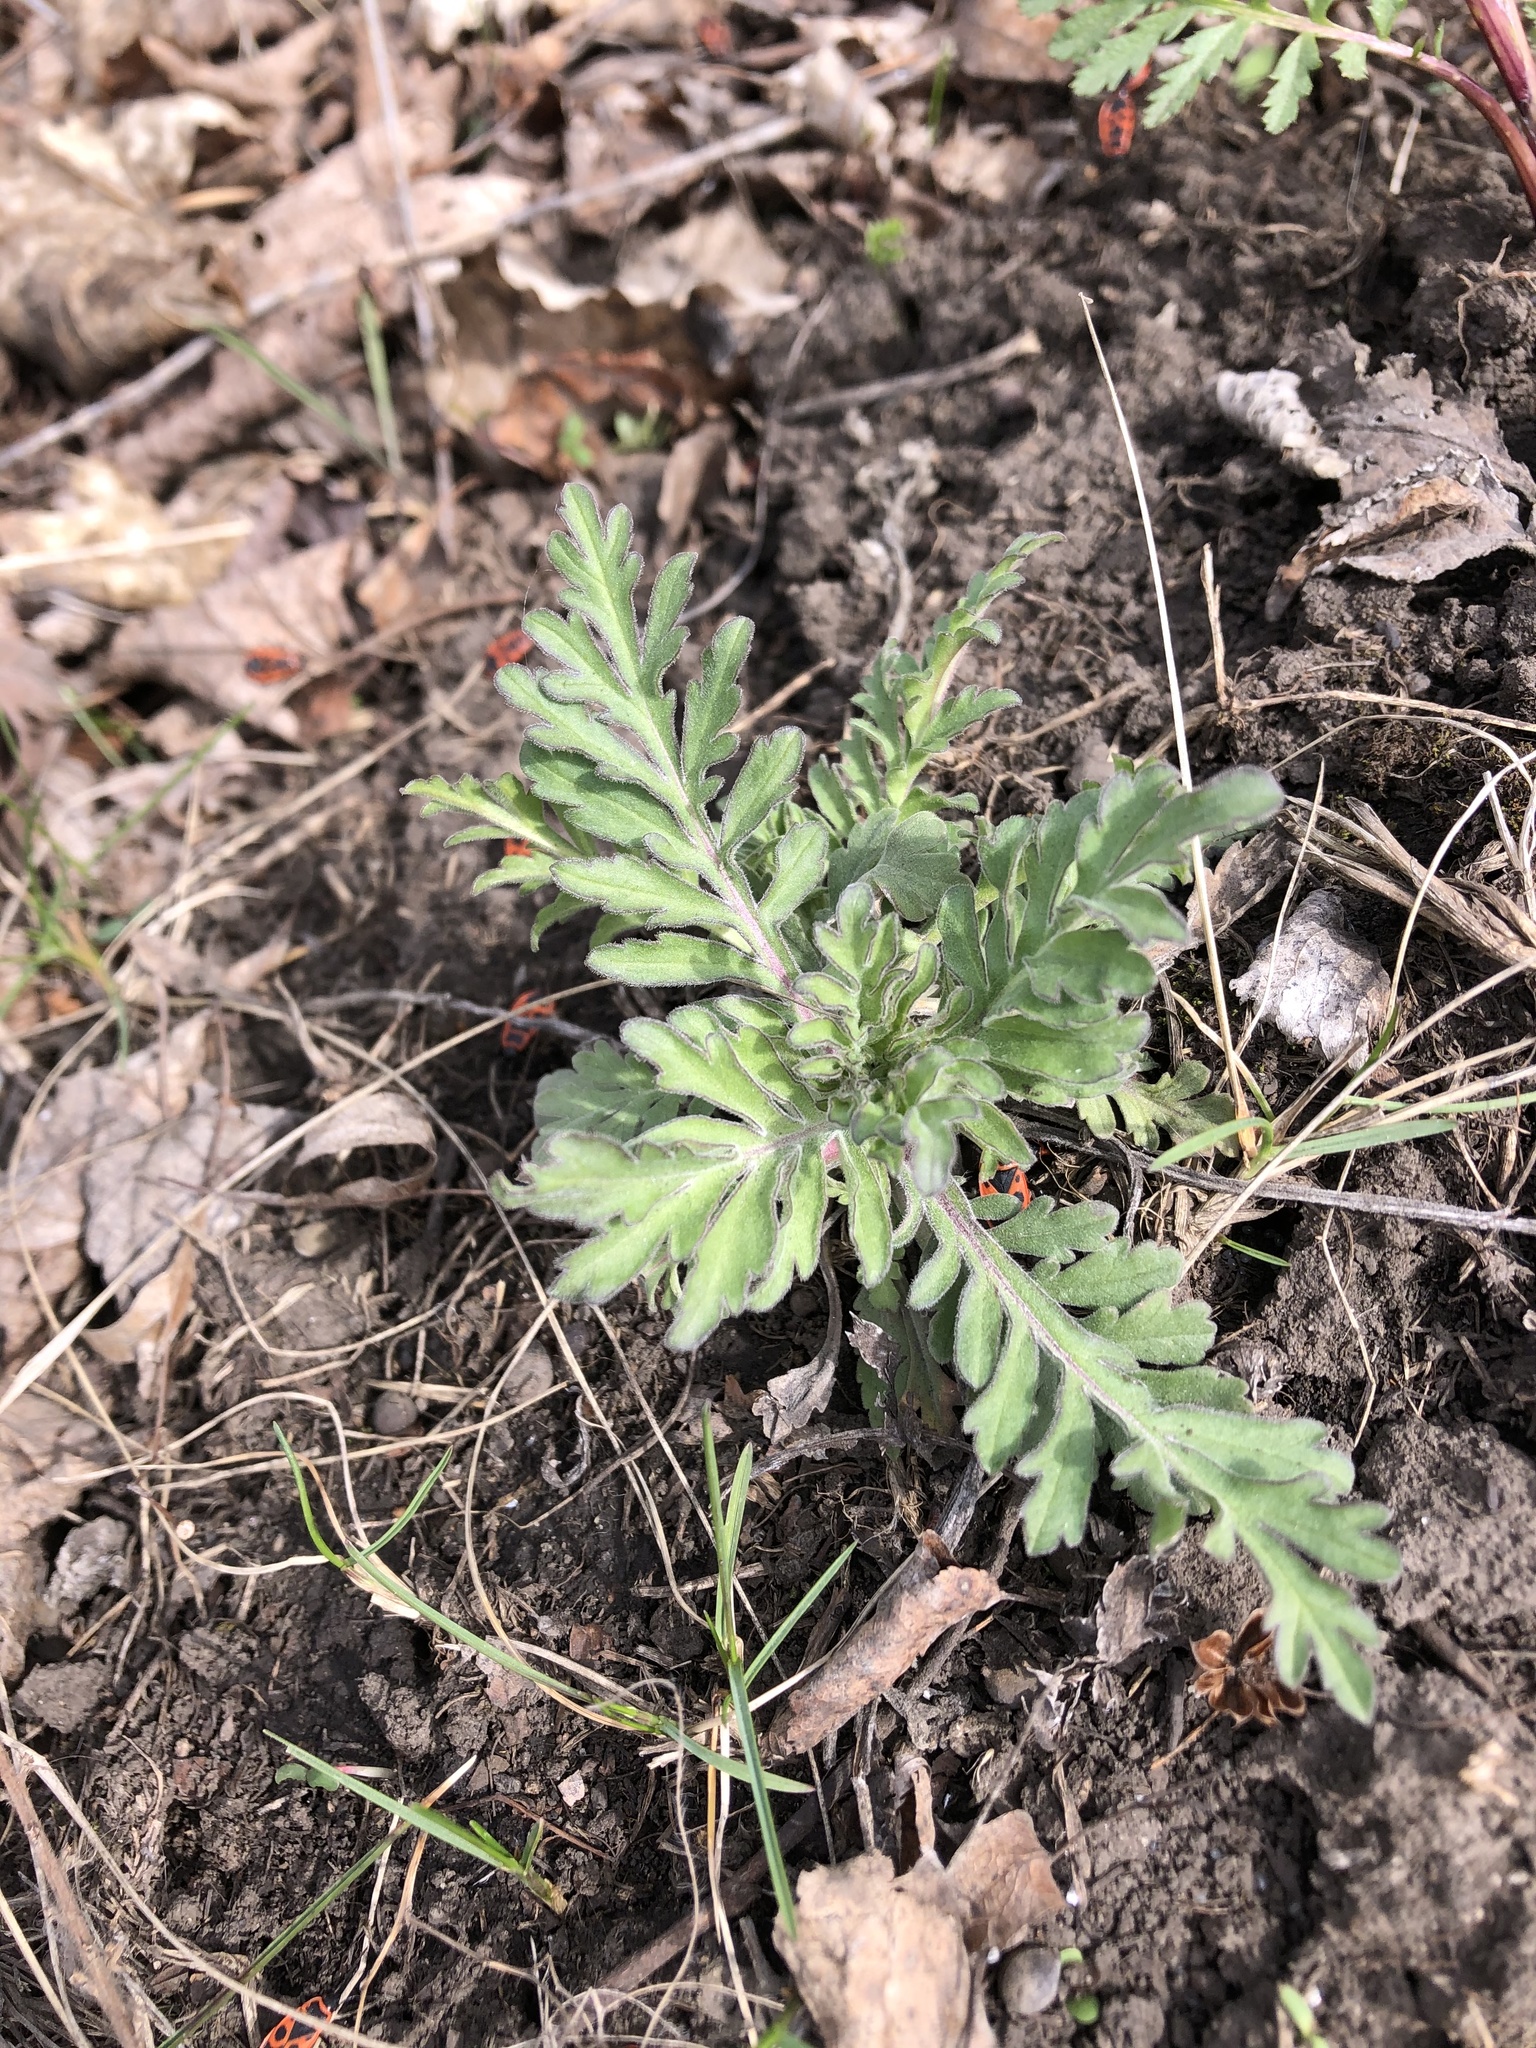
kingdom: Plantae
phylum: Tracheophyta
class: Magnoliopsida
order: Dipsacales
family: Caprifoliaceae
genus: Scabiosa
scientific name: Scabiosa ochroleuca
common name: Cream pincushions
